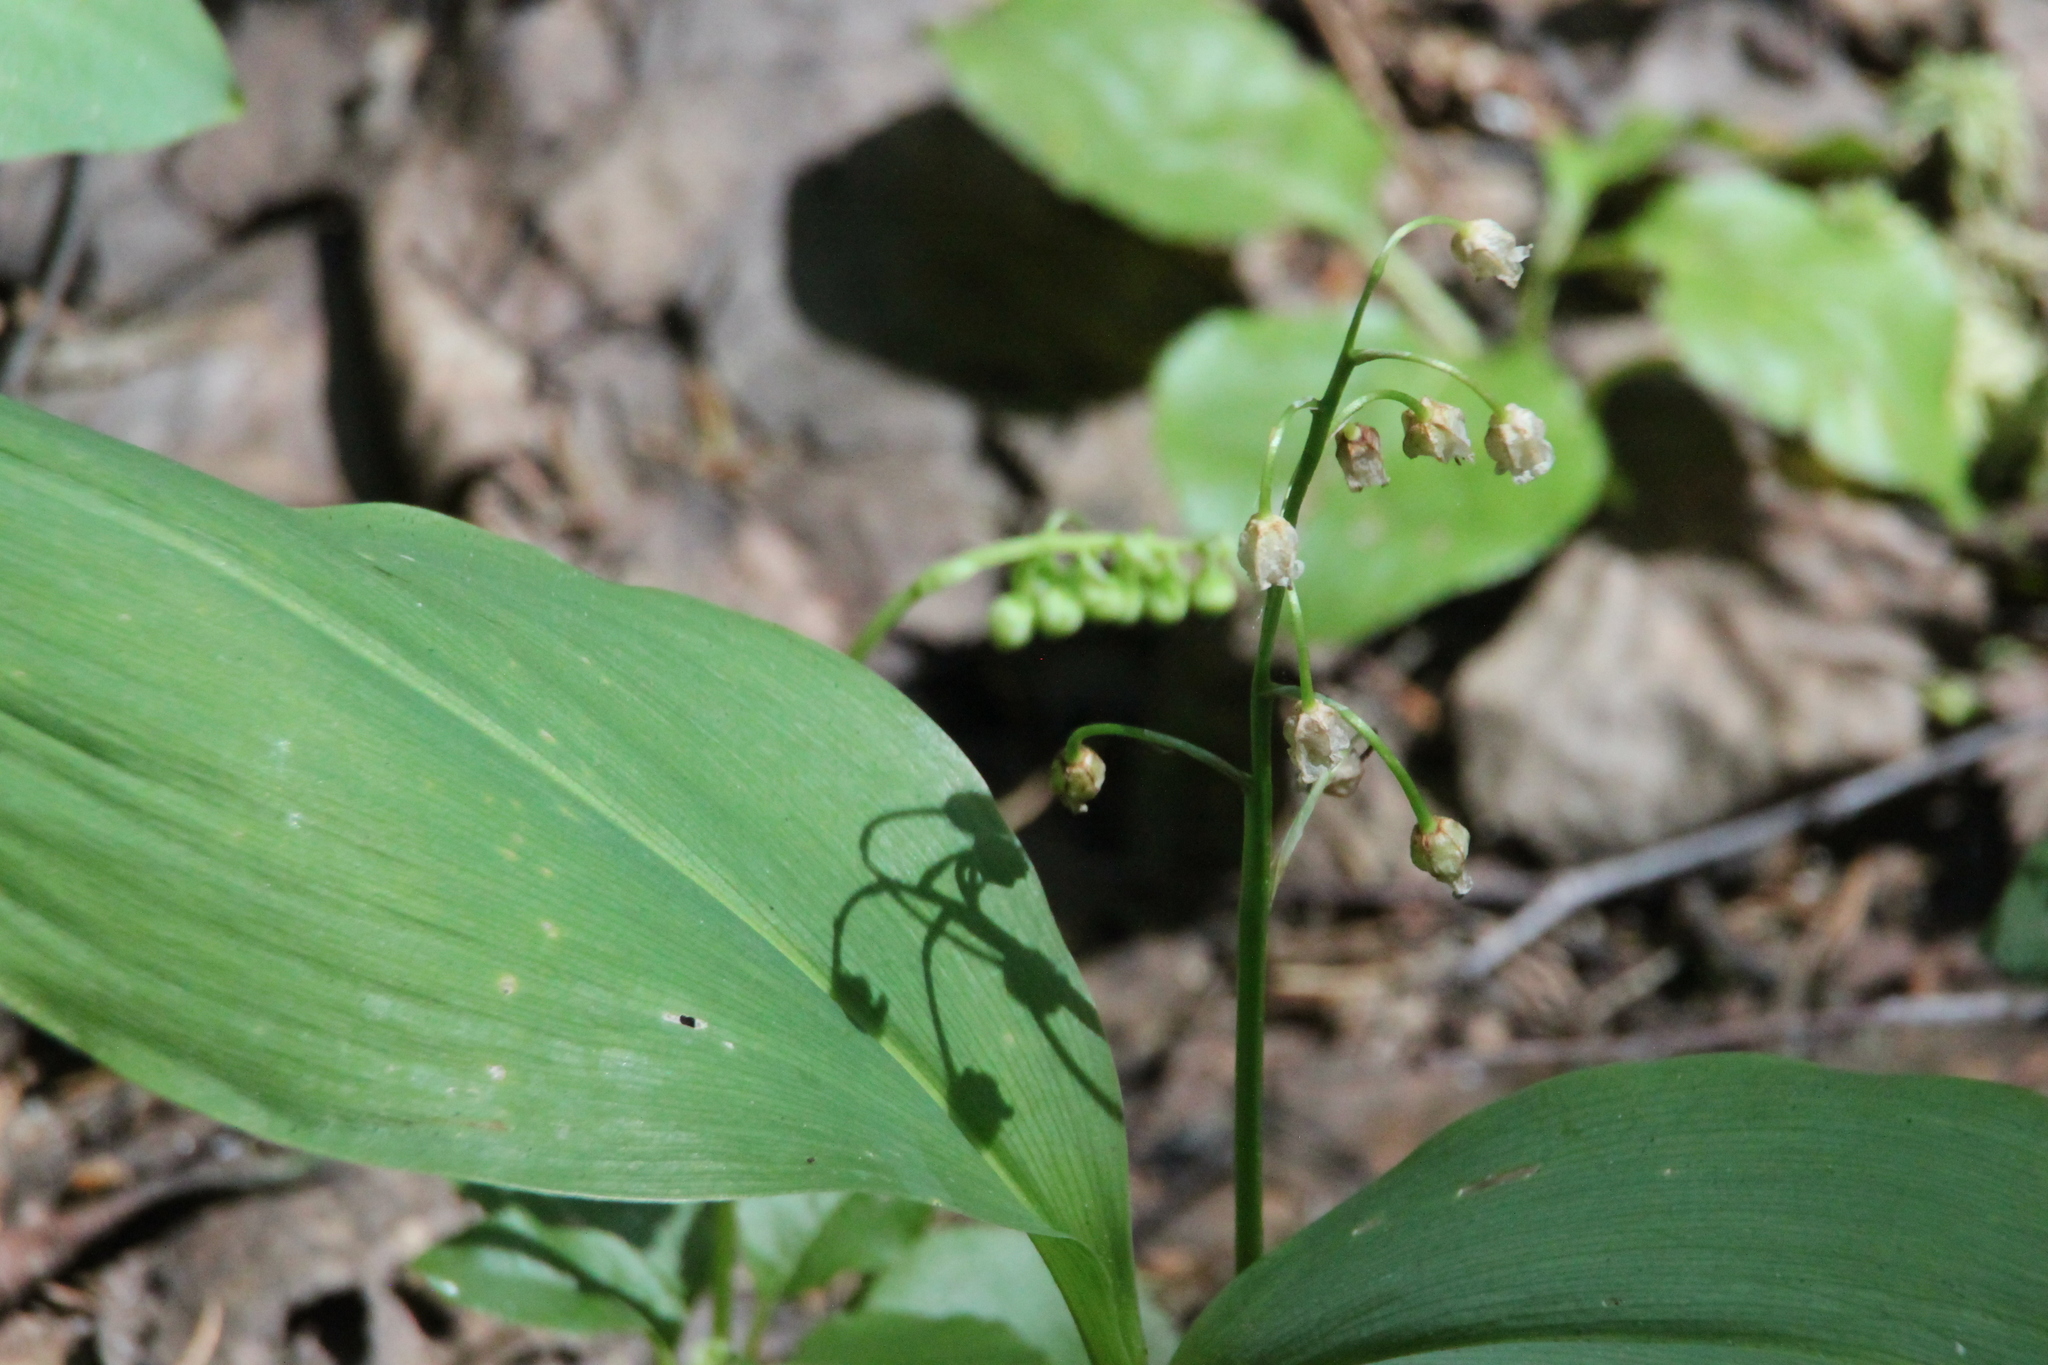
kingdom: Plantae
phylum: Tracheophyta
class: Liliopsida
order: Asparagales
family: Asparagaceae
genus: Convallaria
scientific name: Convallaria majalis
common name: Lily-of-the-valley
